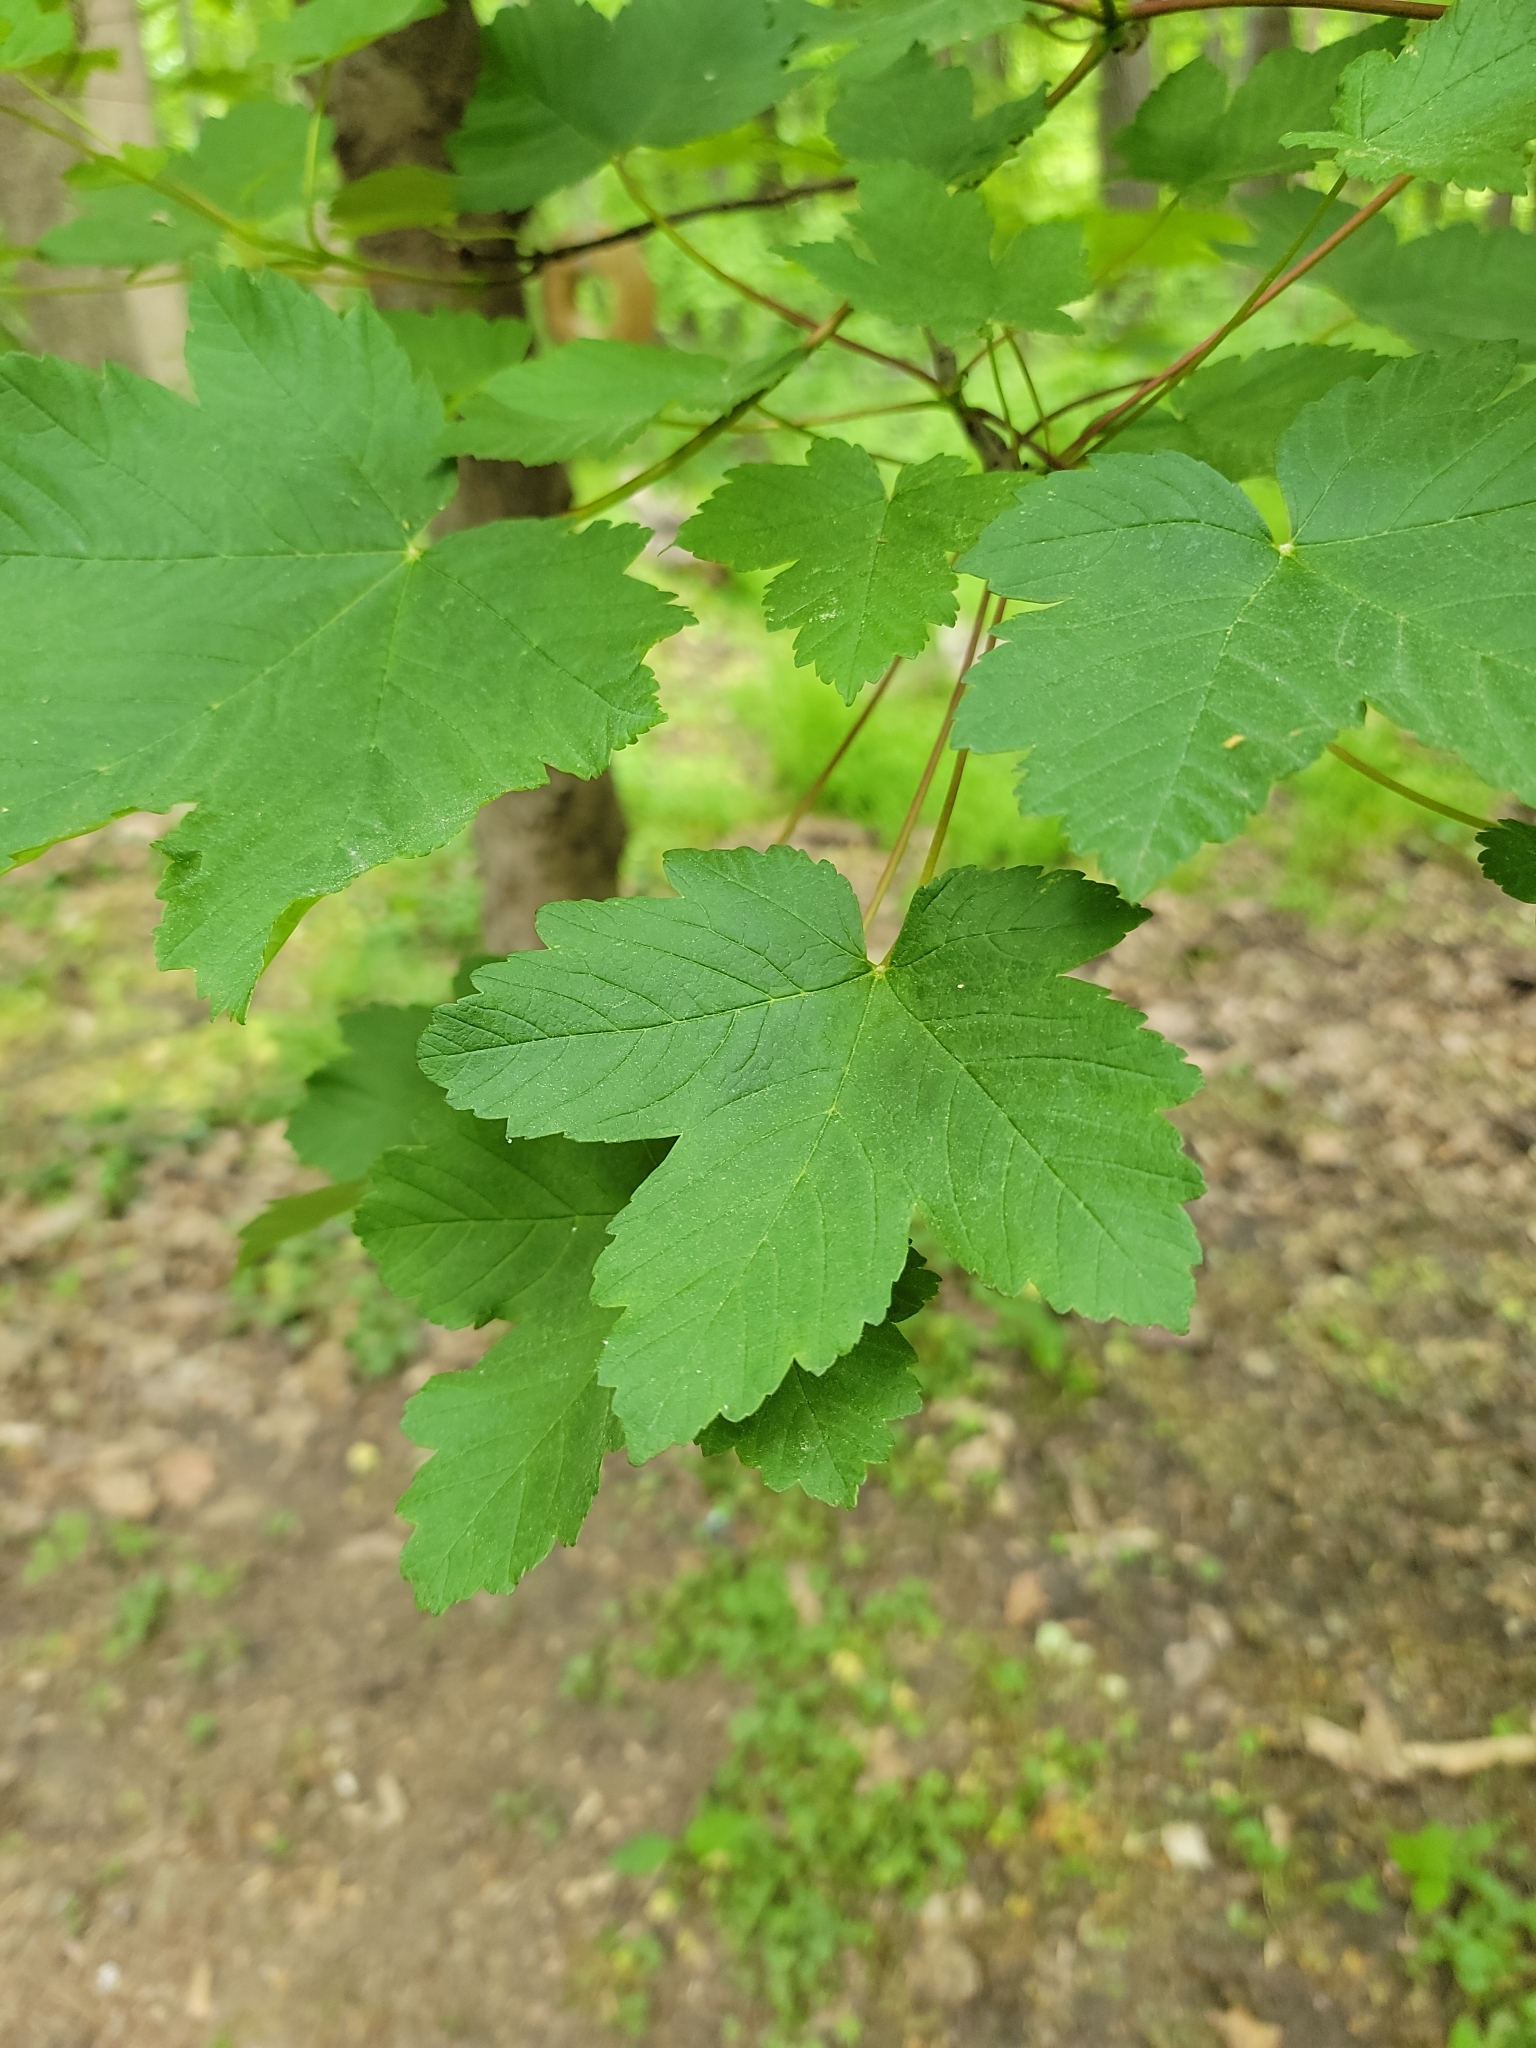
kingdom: Plantae
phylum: Tracheophyta
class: Magnoliopsida
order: Sapindales
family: Sapindaceae
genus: Acer
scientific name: Acer pseudoplatanus
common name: Sycamore
